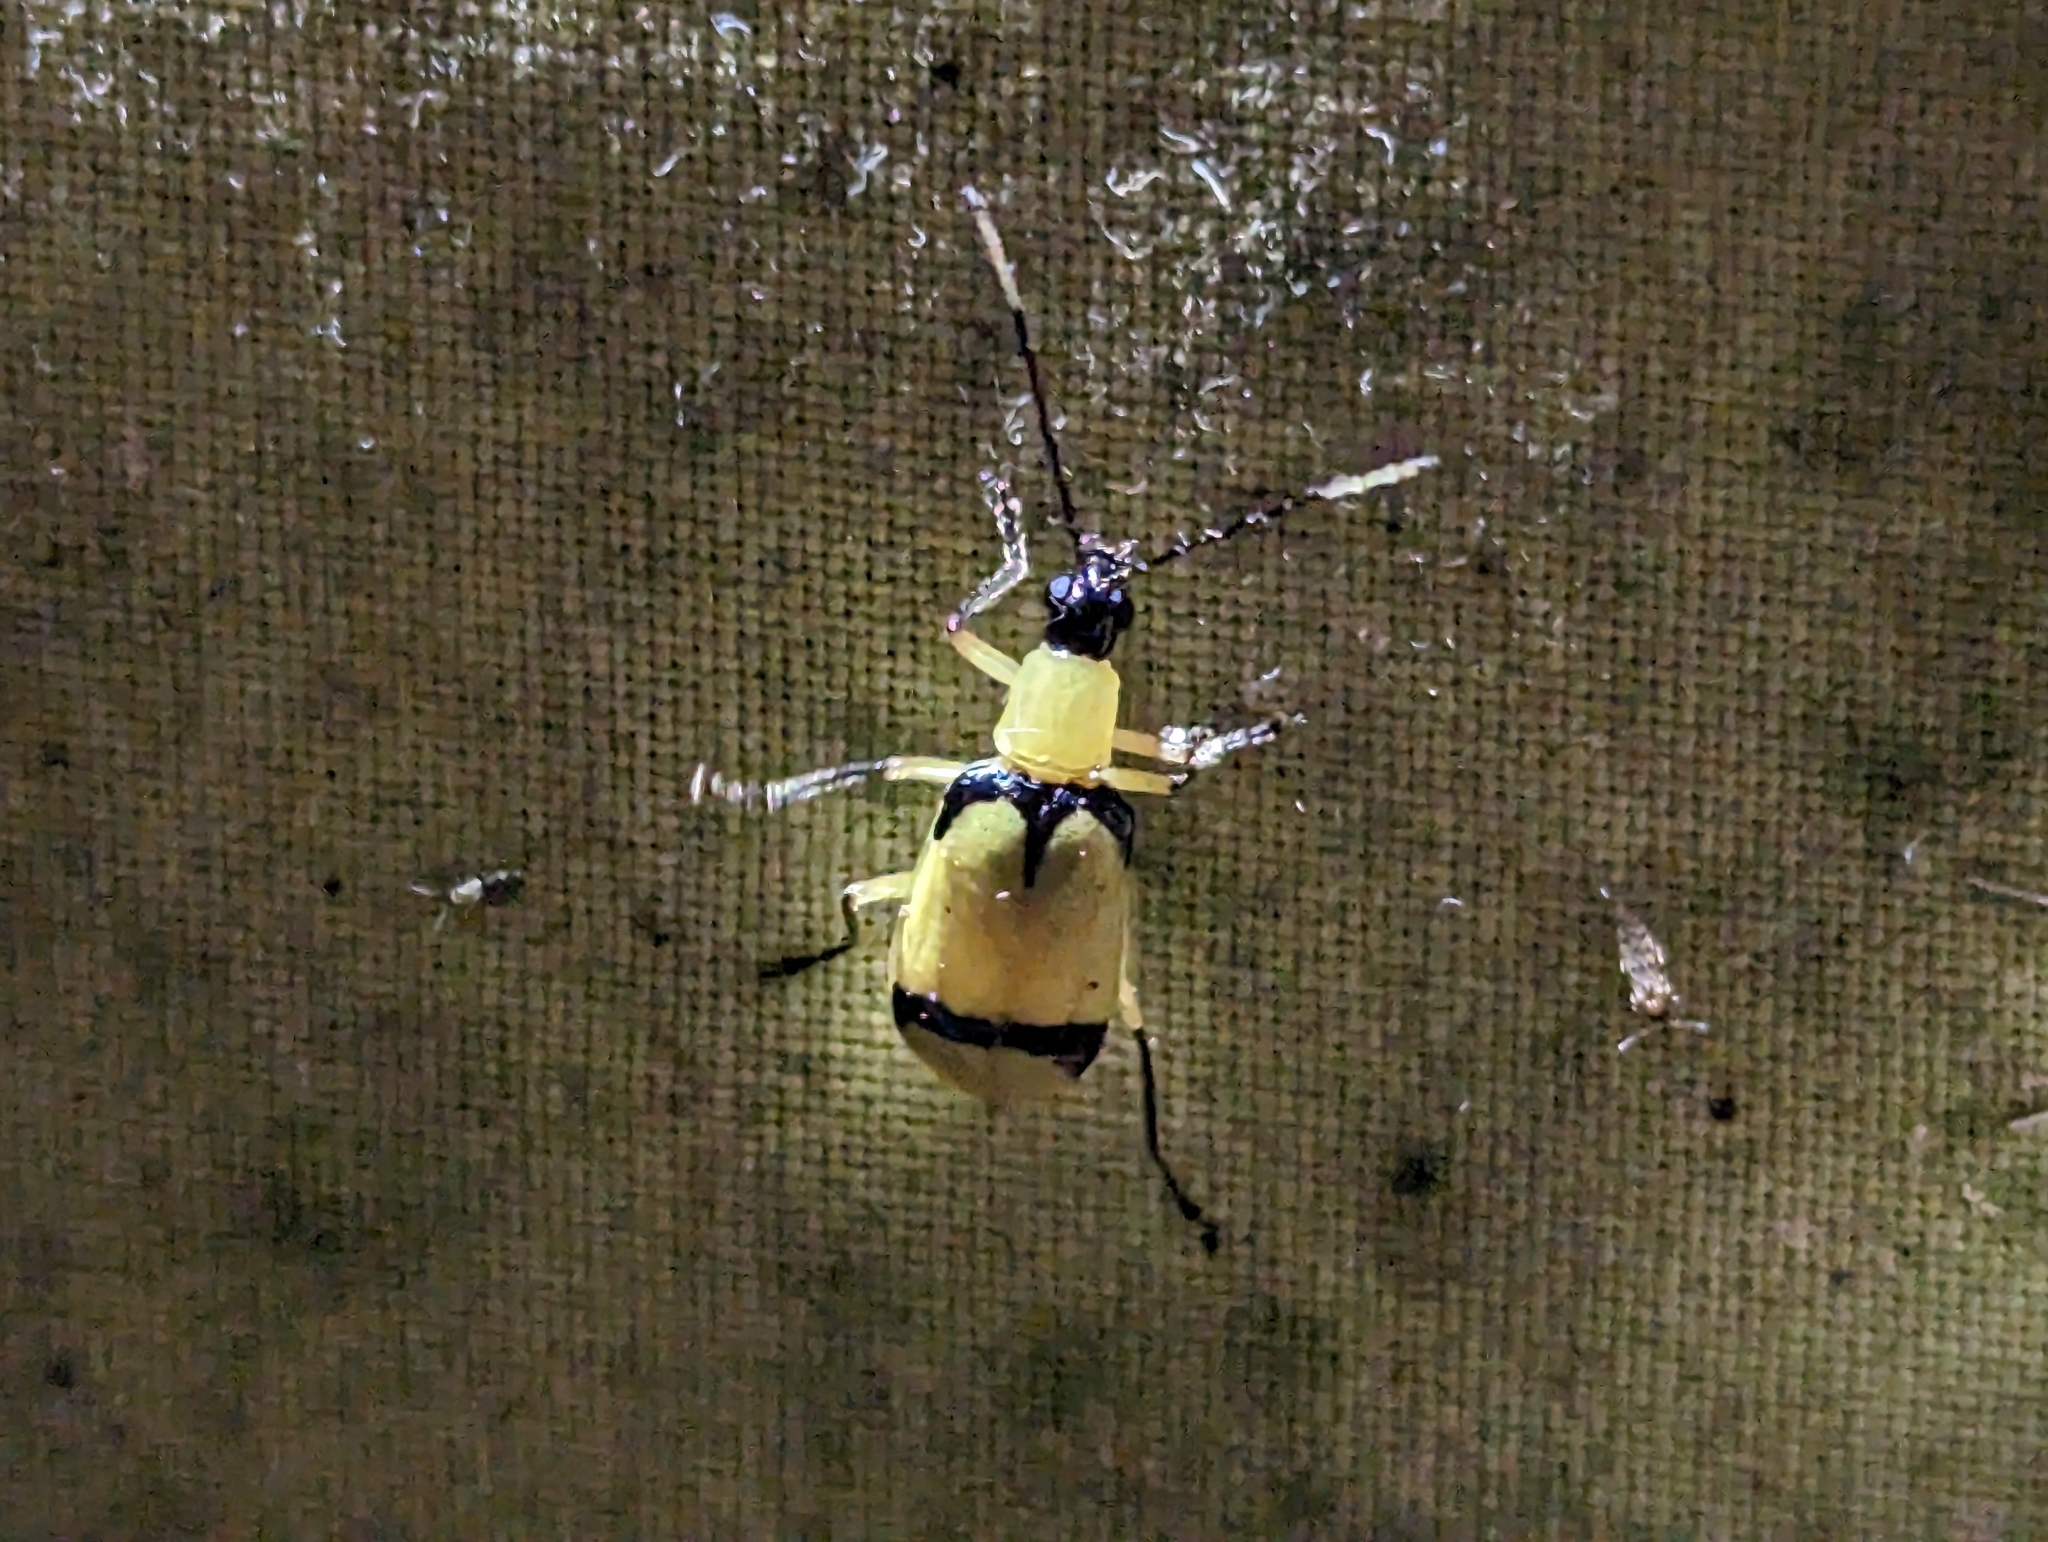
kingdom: Animalia
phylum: Arthropoda
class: Insecta
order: Coleoptera
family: Chrysomelidae
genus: Diabrotica
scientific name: Diabrotica
